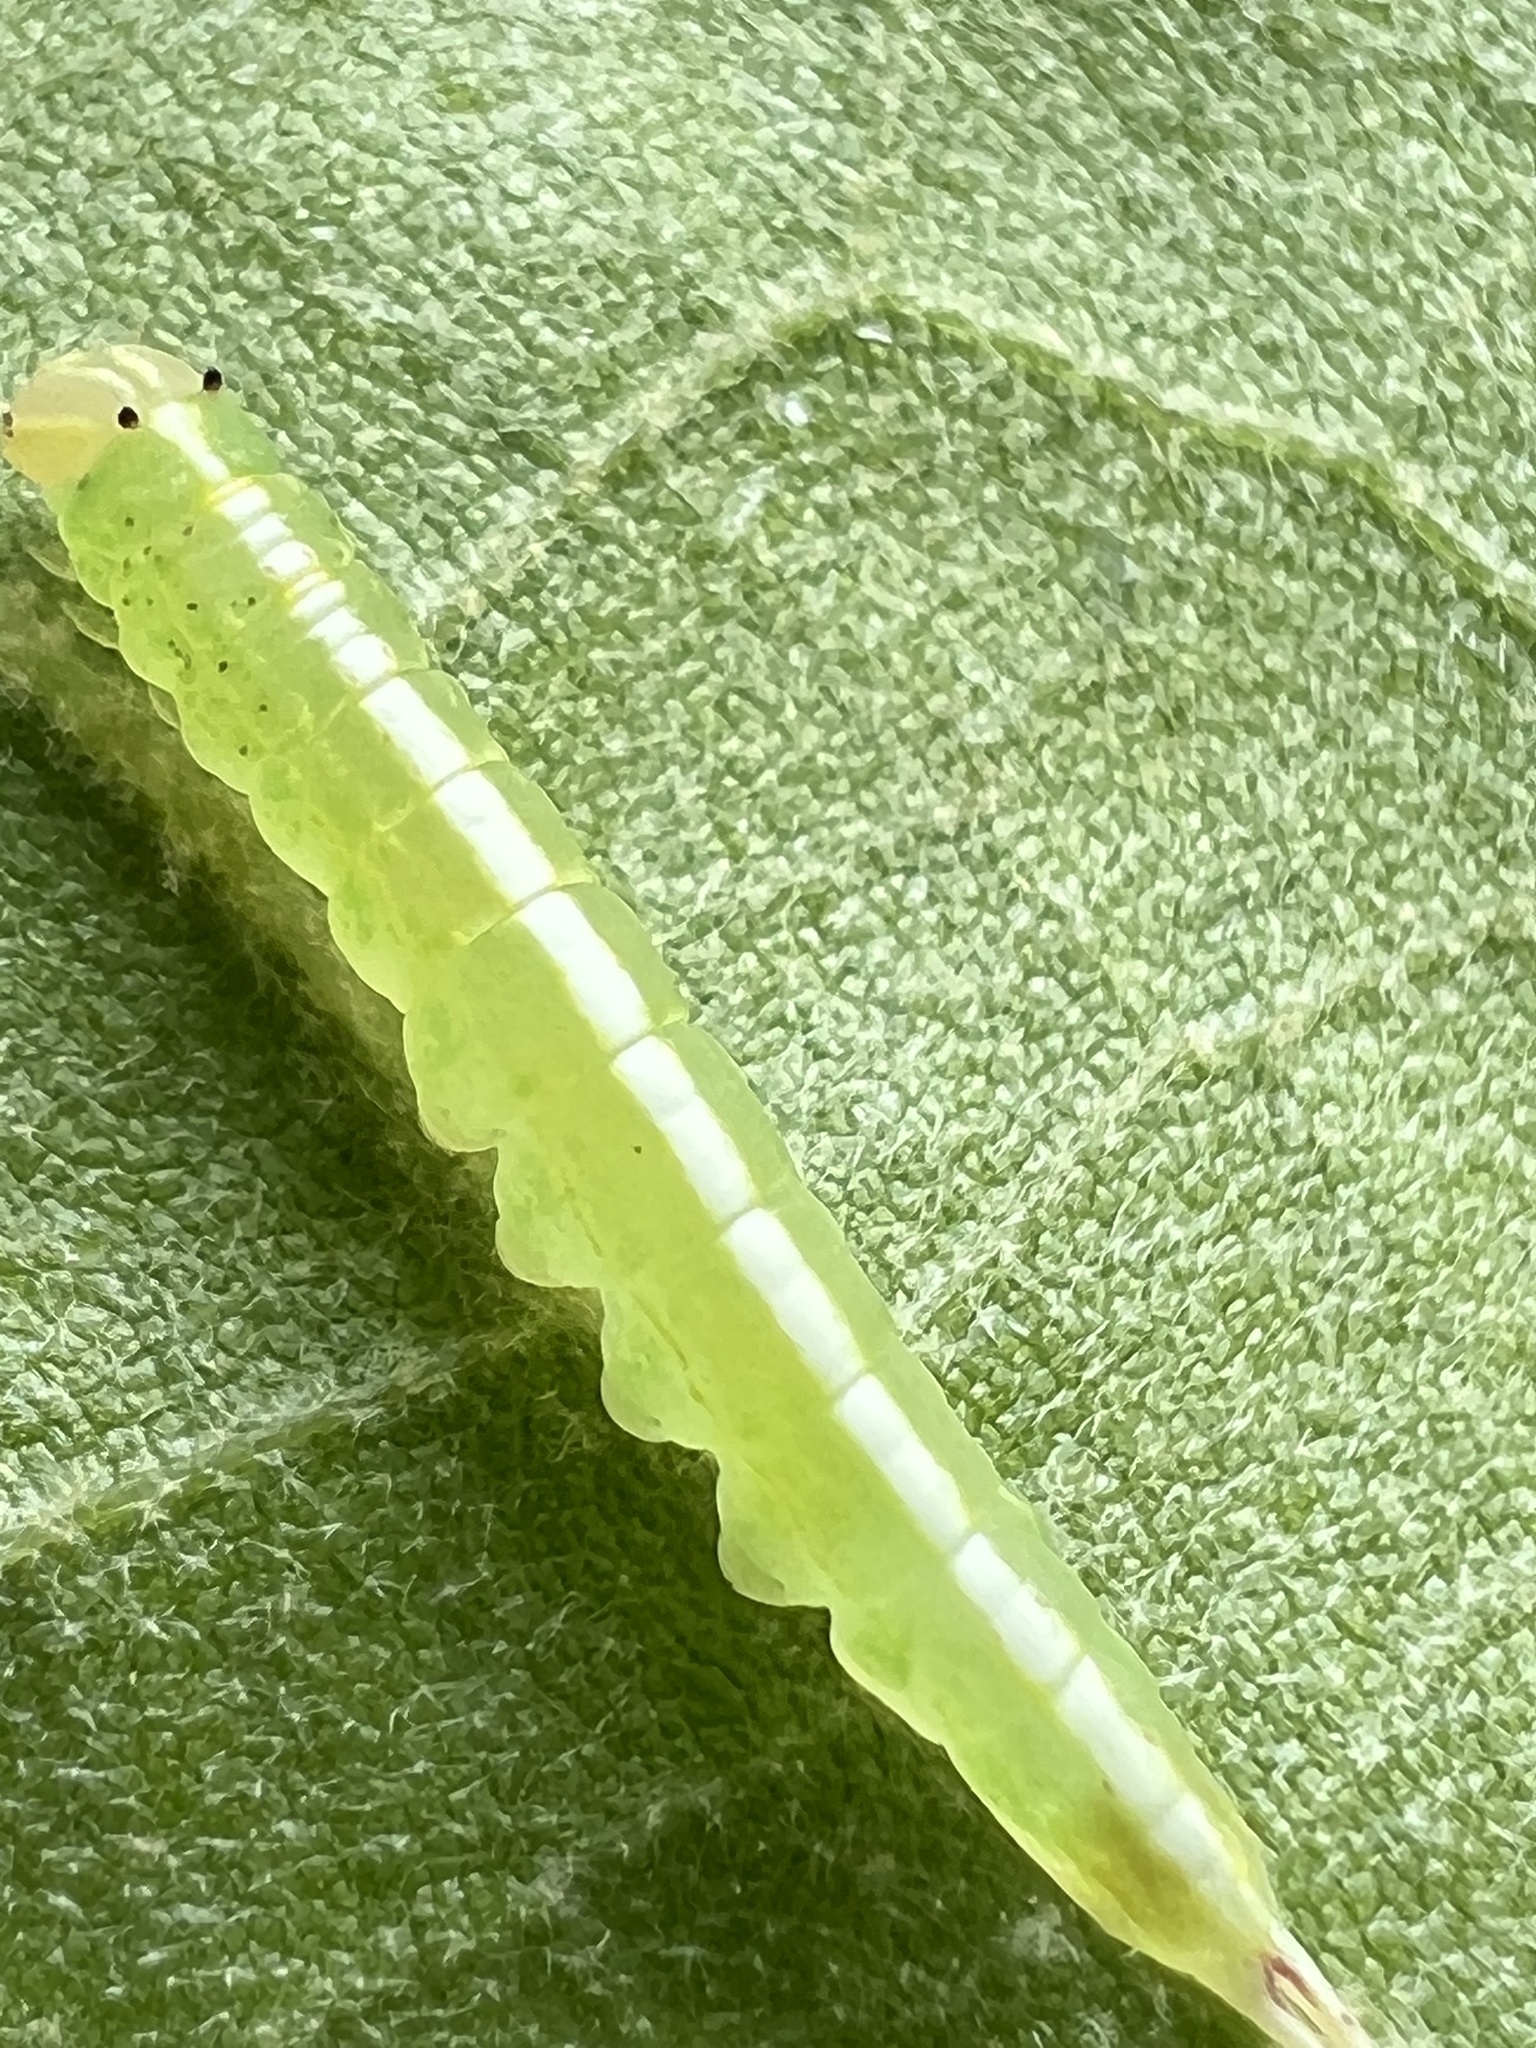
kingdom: Animalia
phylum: Arthropoda
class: Insecta
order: Lepidoptera
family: Notodontidae
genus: Misogada
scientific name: Misogada unicolor
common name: Drab prominent
